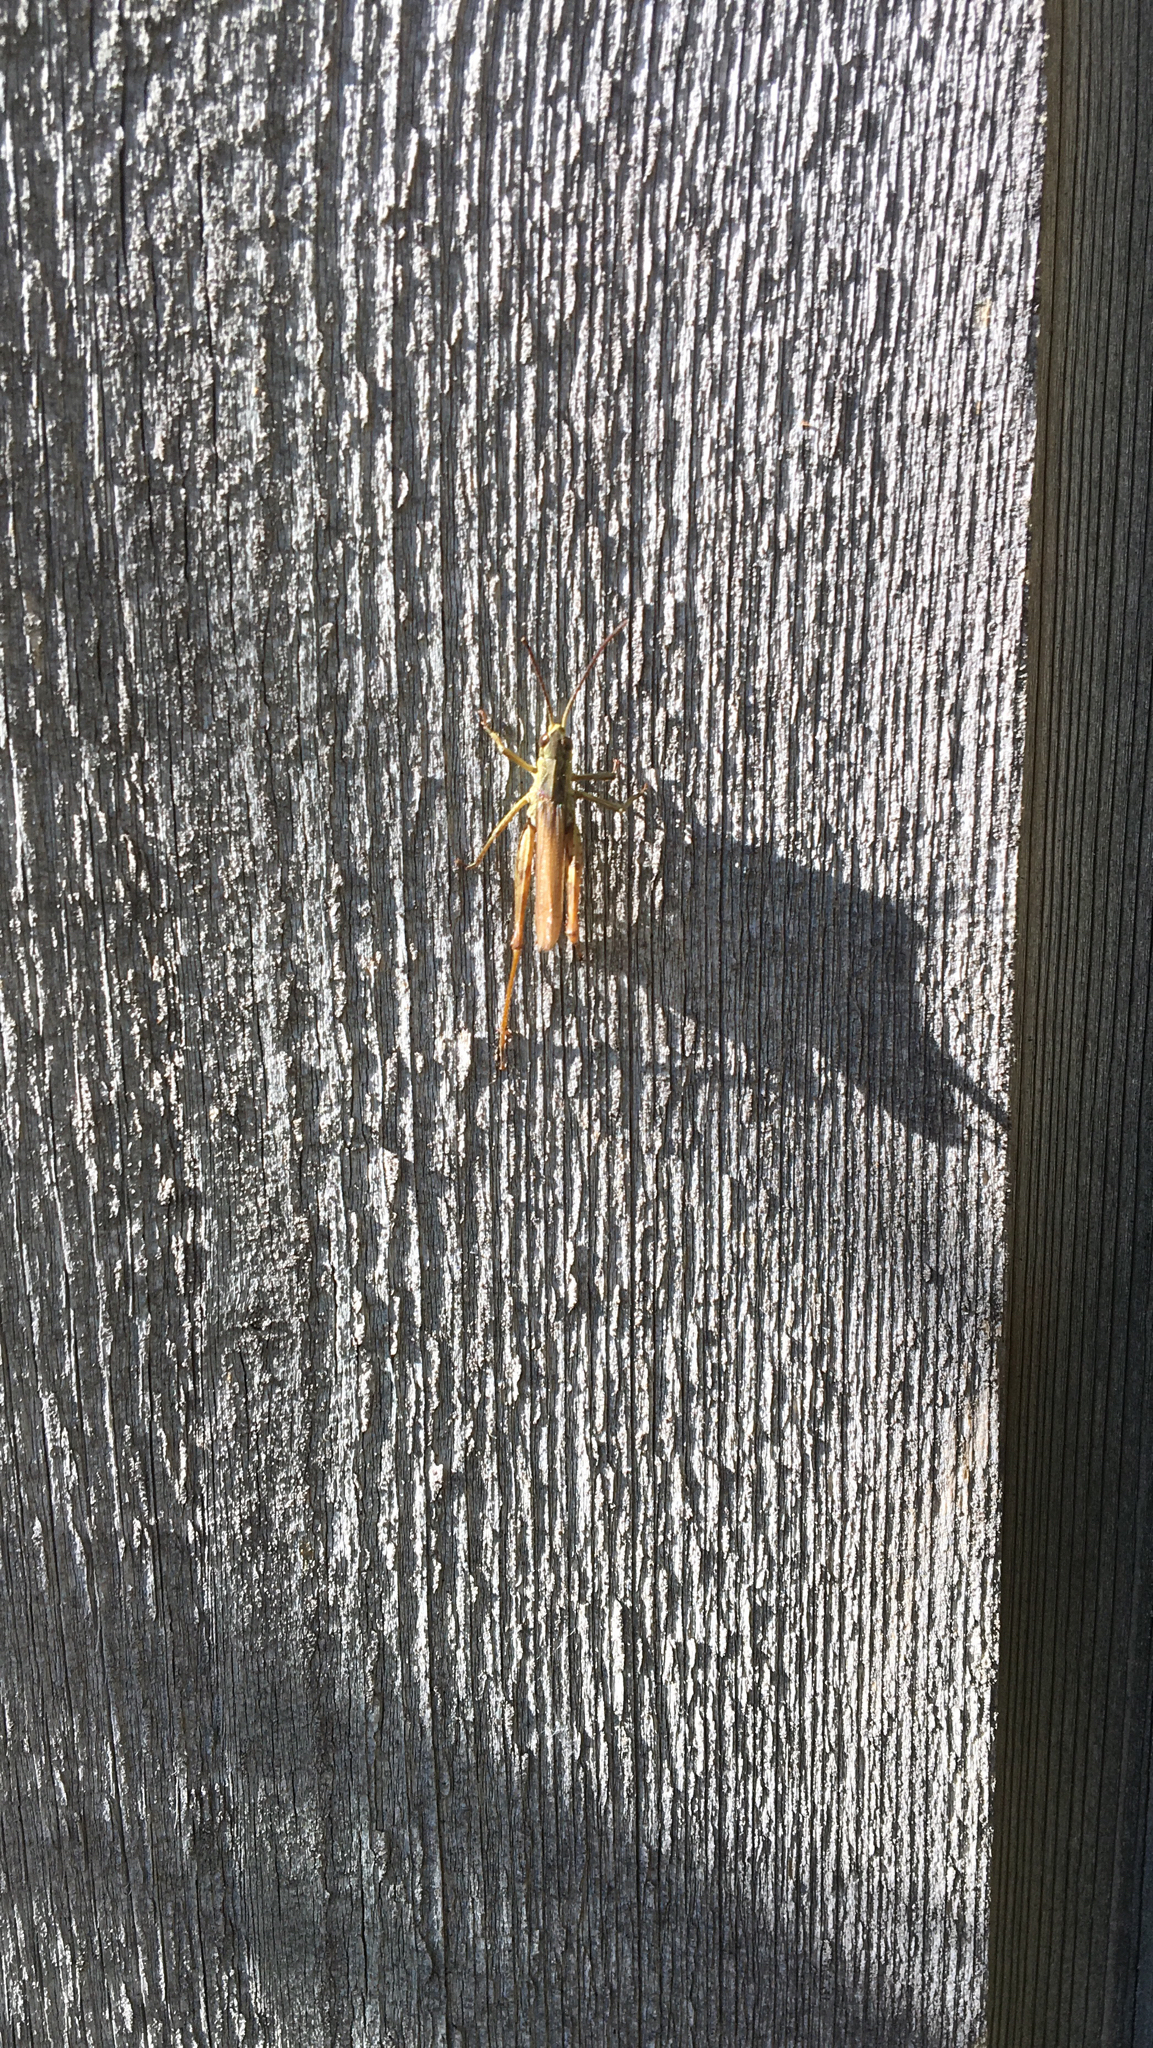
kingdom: Animalia
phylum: Arthropoda
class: Insecta
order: Orthoptera
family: Acrididae
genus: Chorthippus
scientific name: Chorthippus apricarius
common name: Upland field grasshopper
